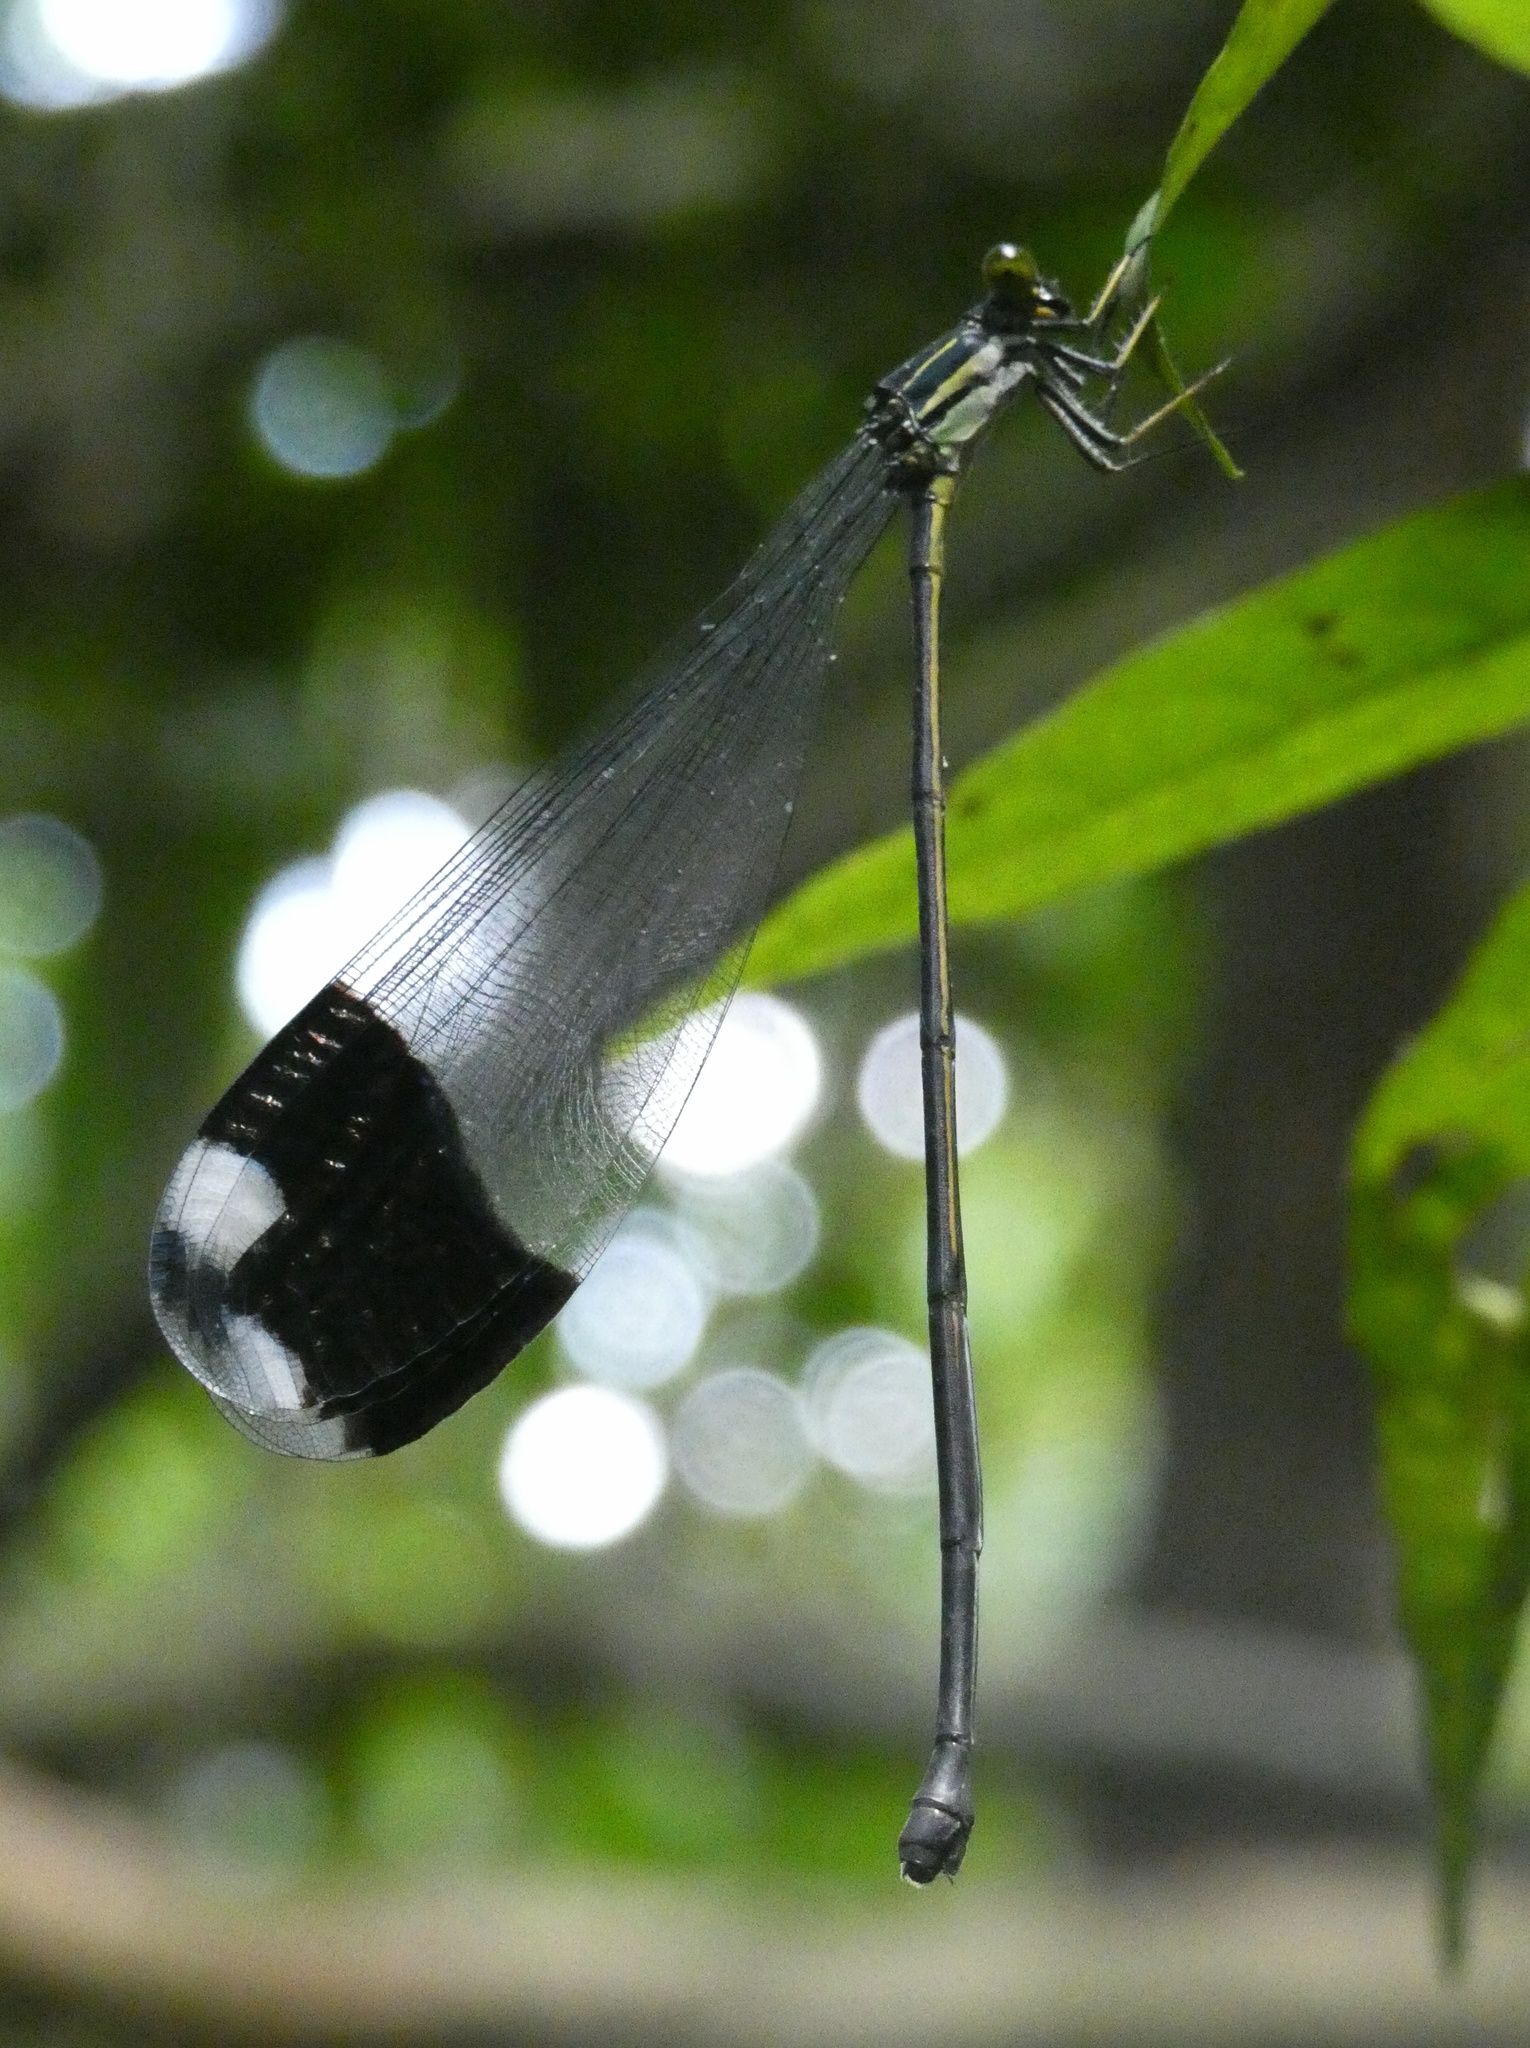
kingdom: Animalia
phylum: Arthropoda
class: Insecta
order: Odonata
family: Coenagrionidae
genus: Megaloprepus
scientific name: Megaloprepus caerulatus
